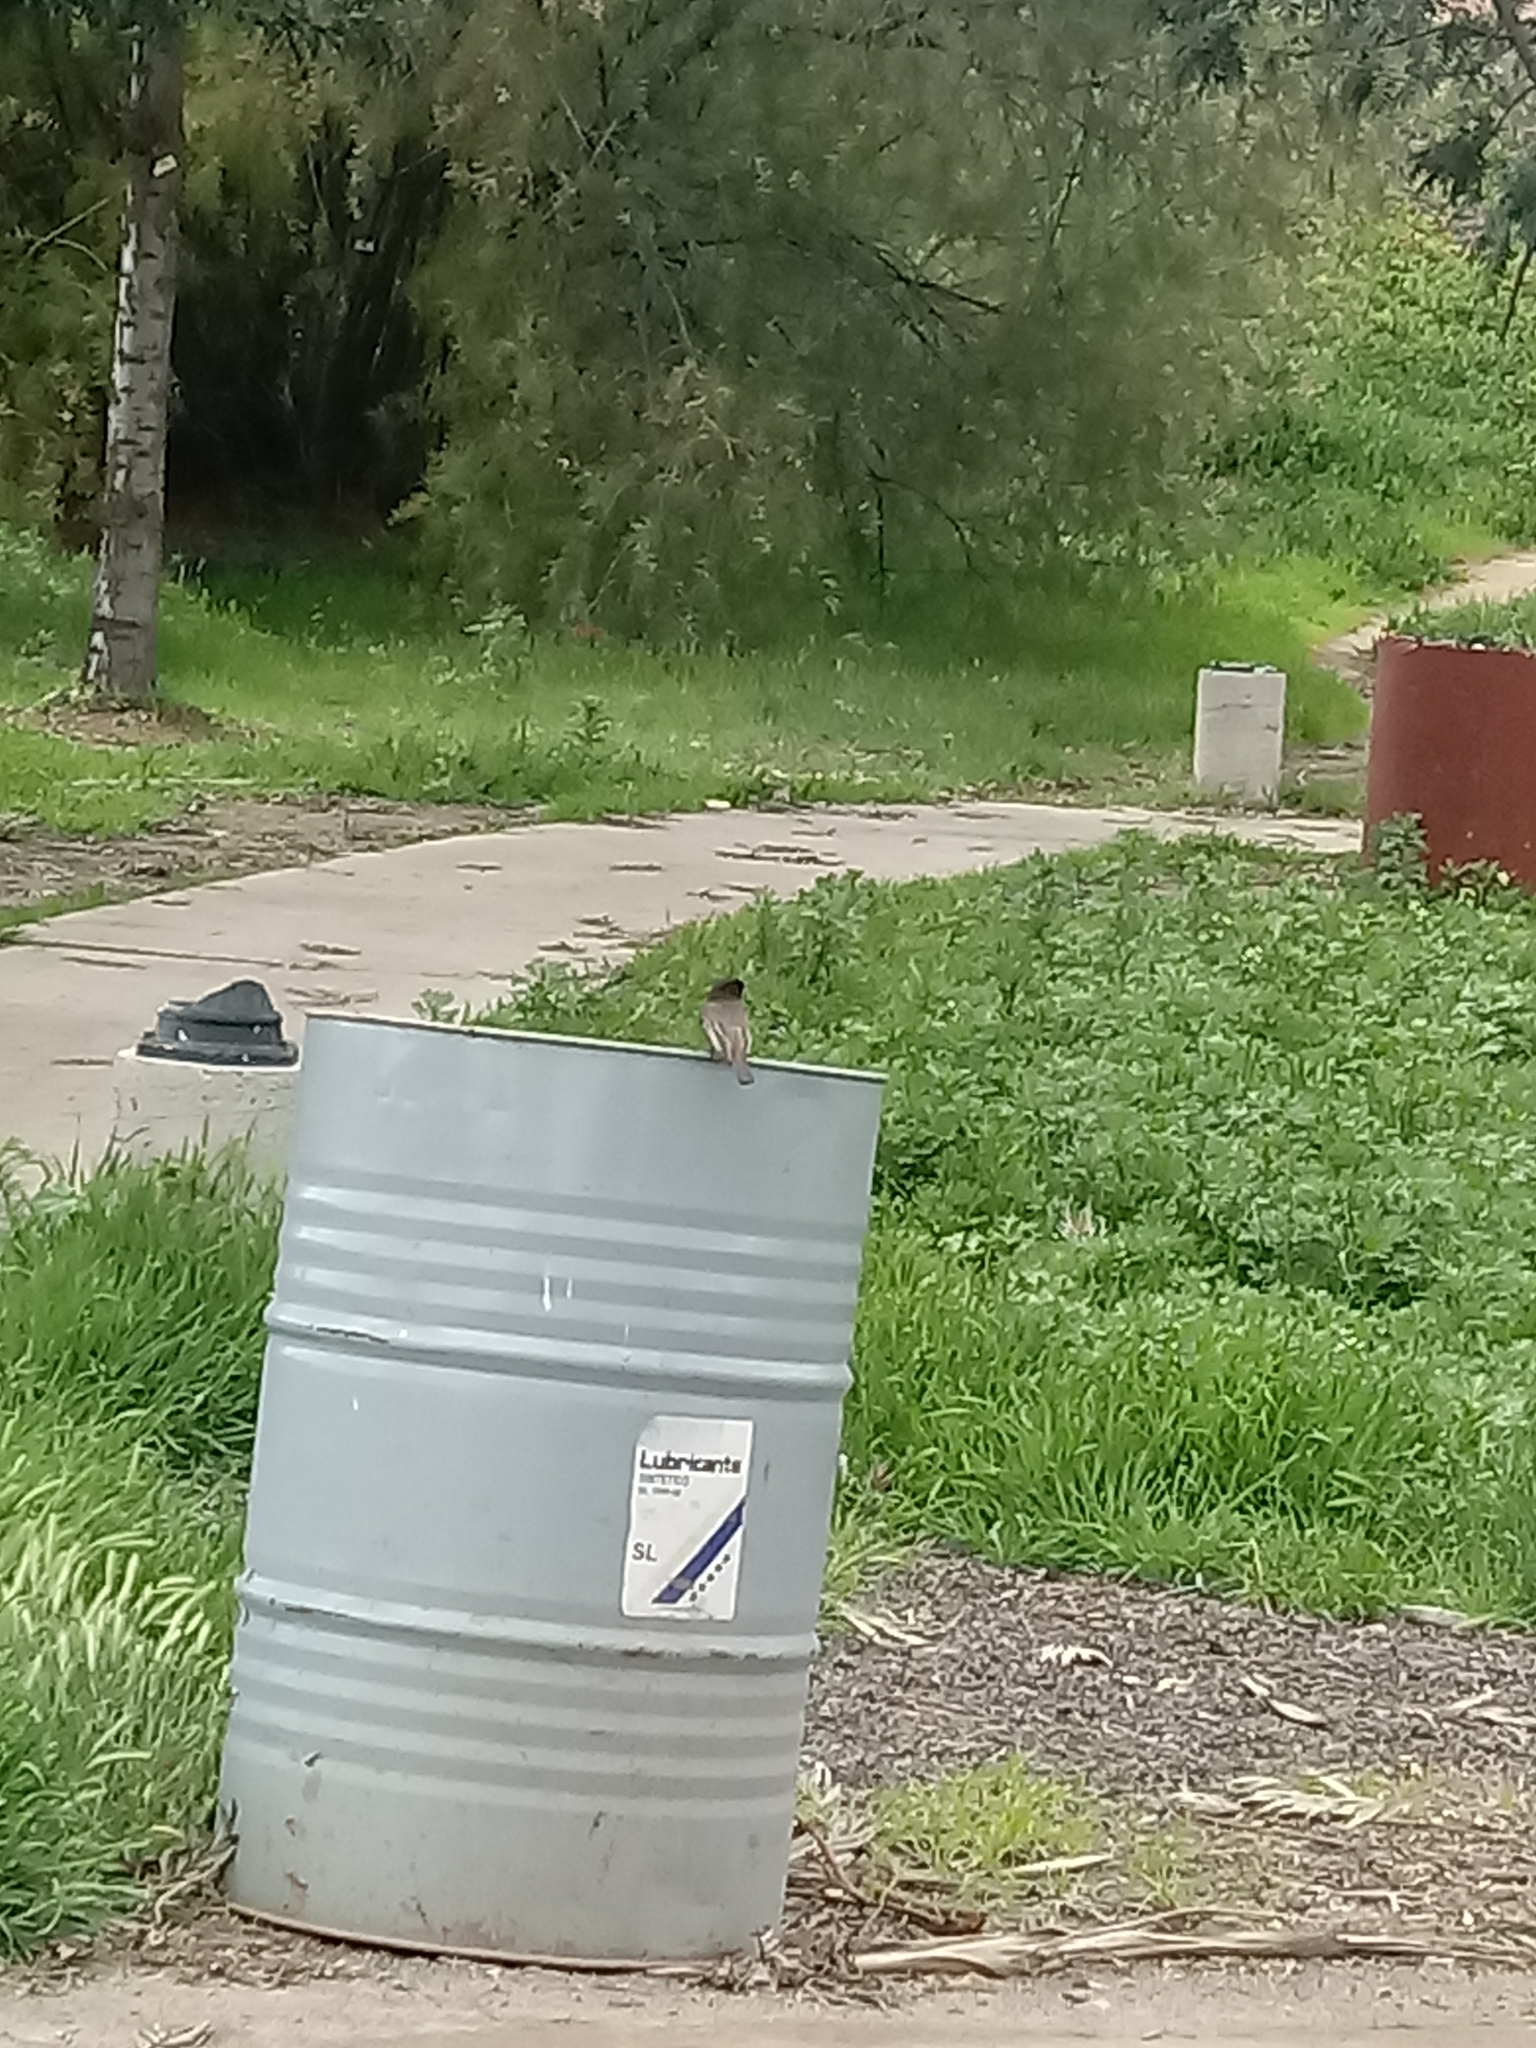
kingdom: Animalia
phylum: Chordata
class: Aves
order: Passeriformes
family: Tyrannidae
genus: Sayornis
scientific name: Sayornis nigricans
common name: Black phoebe
